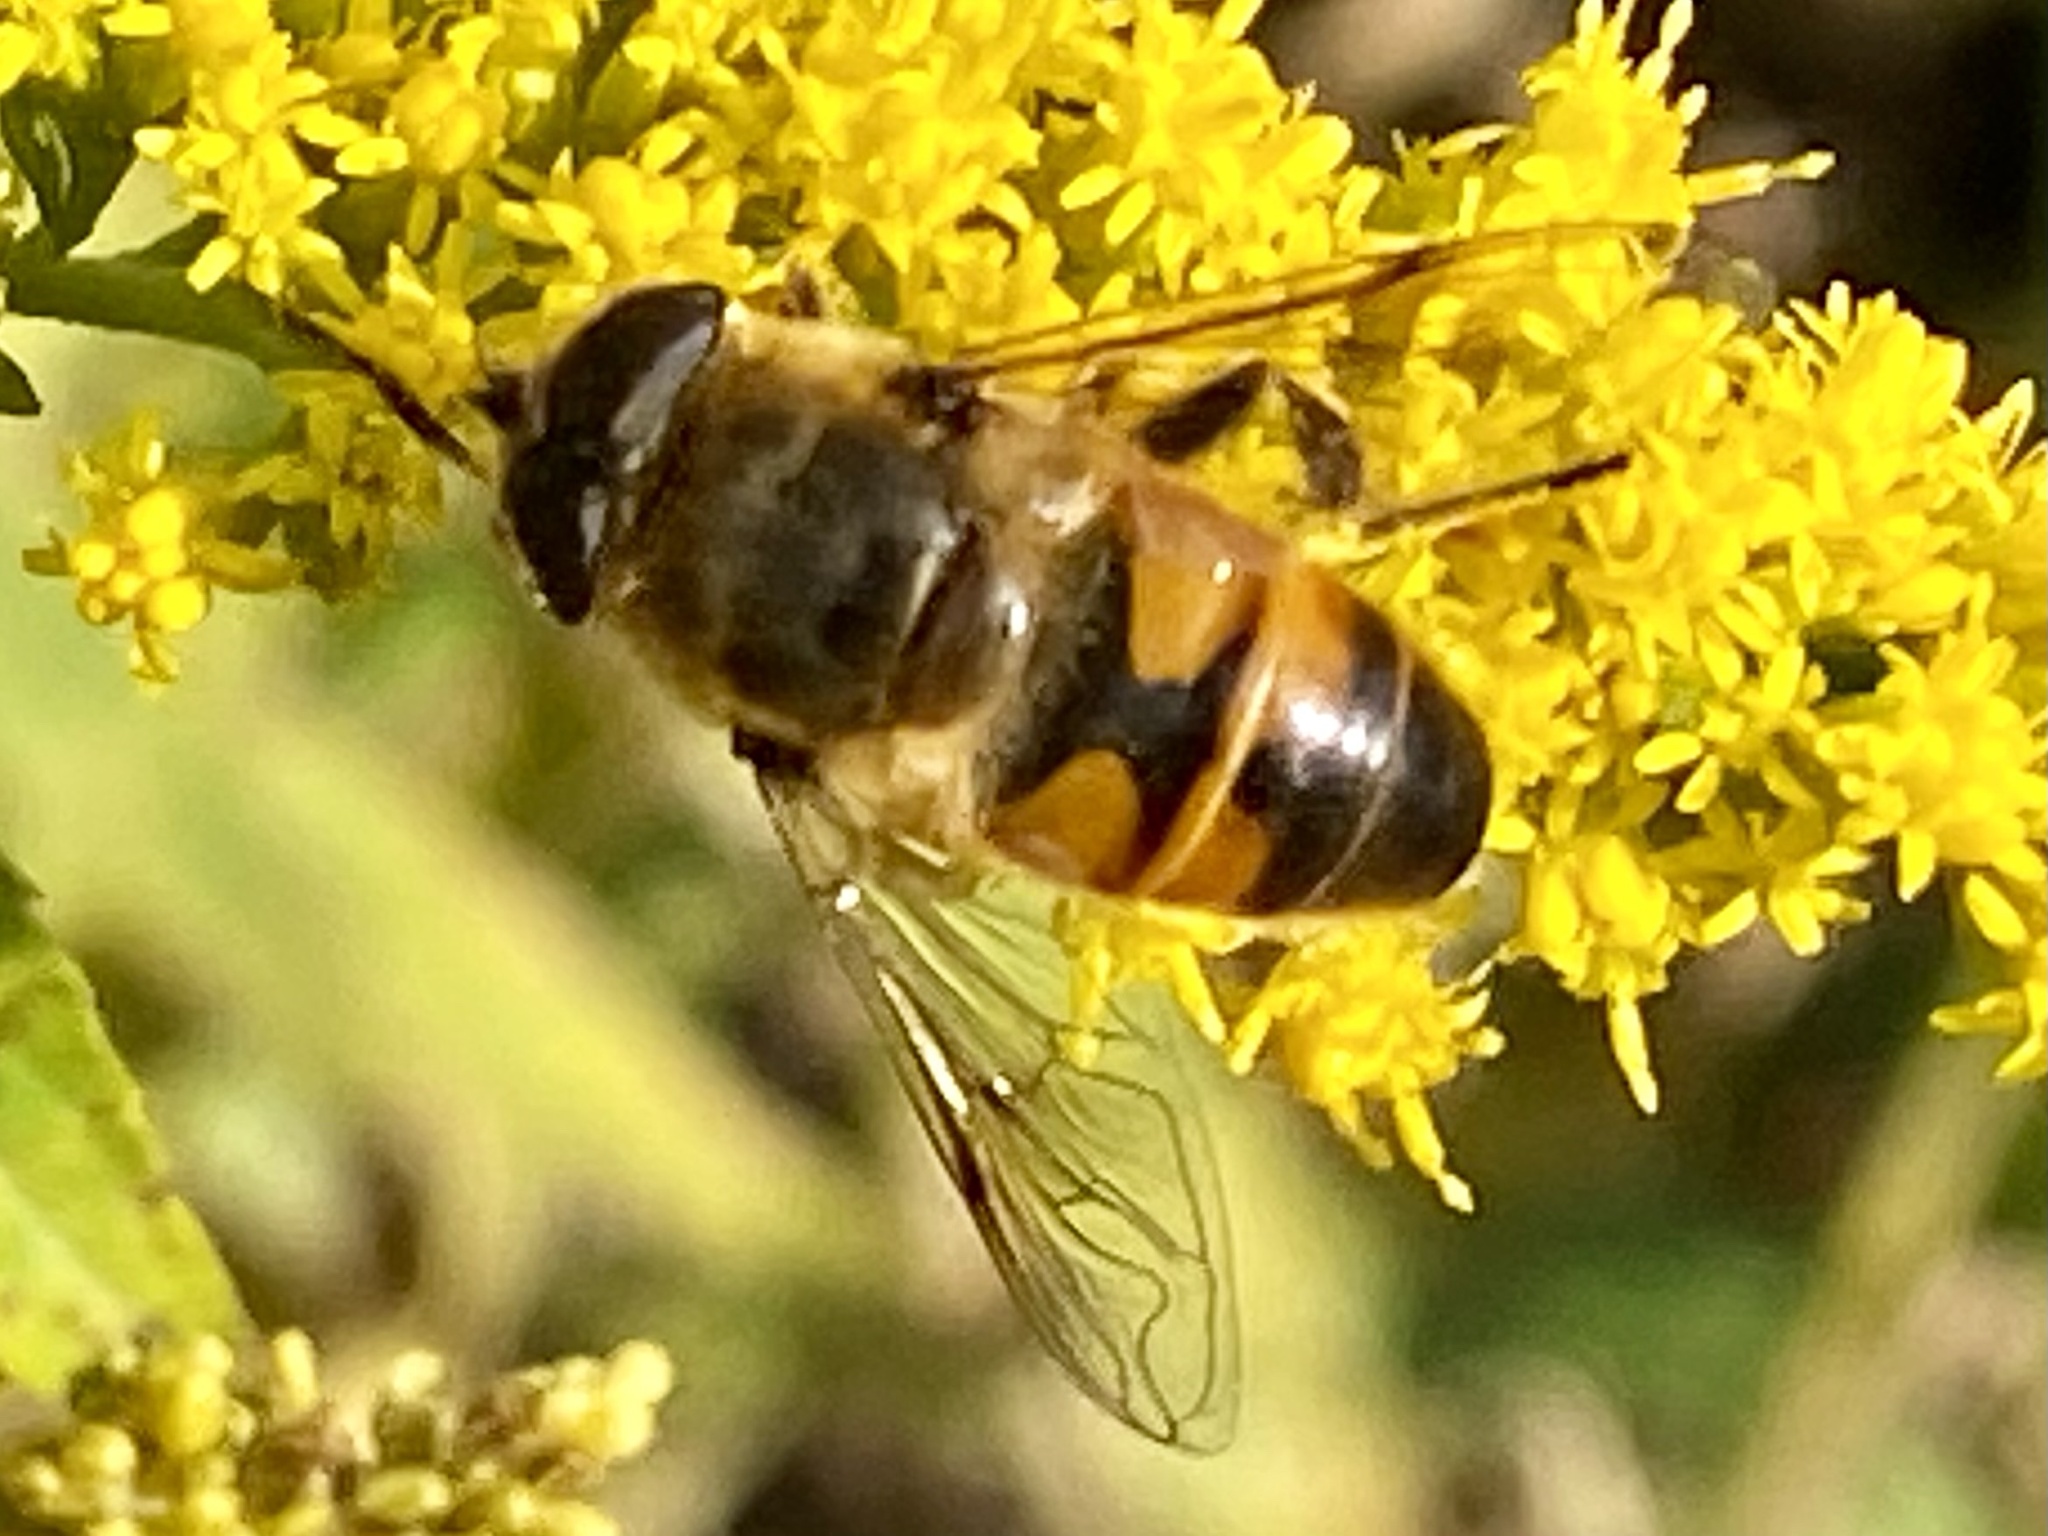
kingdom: Animalia
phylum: Arthropoda
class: Insecta
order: Diptera
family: Syrphidae
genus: Eristalis
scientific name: Eristalis tenax
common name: Drone fly
